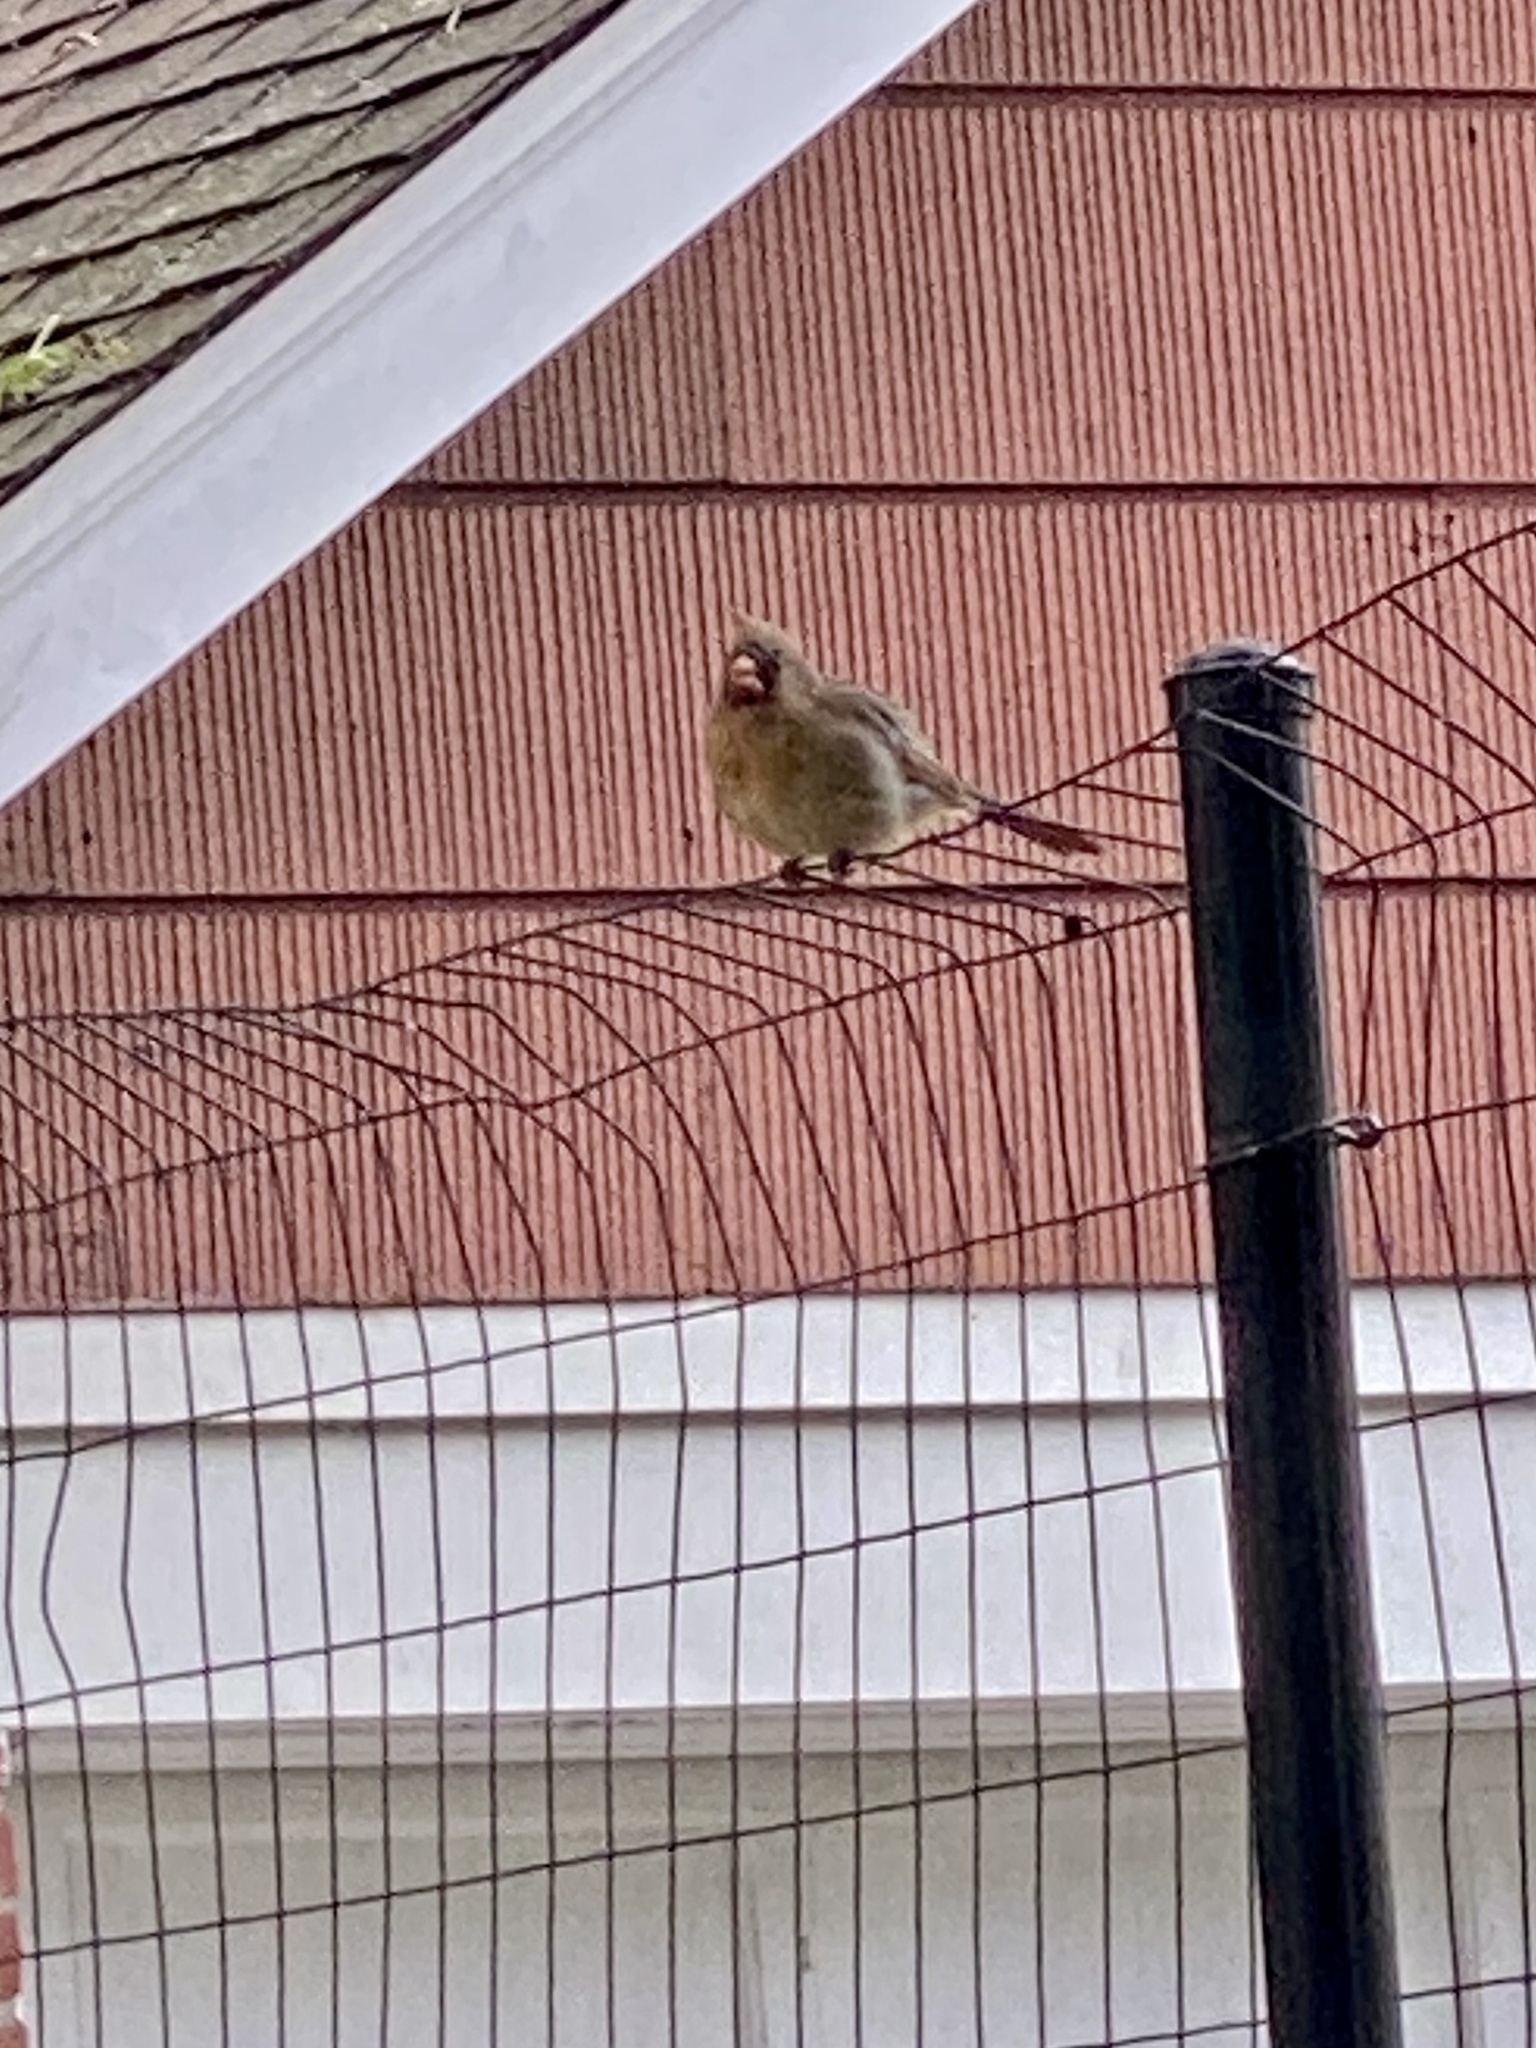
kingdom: Animalia
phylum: Chordata
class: Aves
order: Passeriformes
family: Cardinalidae
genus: Cardinalis
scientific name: Cardinalis cardinalis
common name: Northern cardinal
